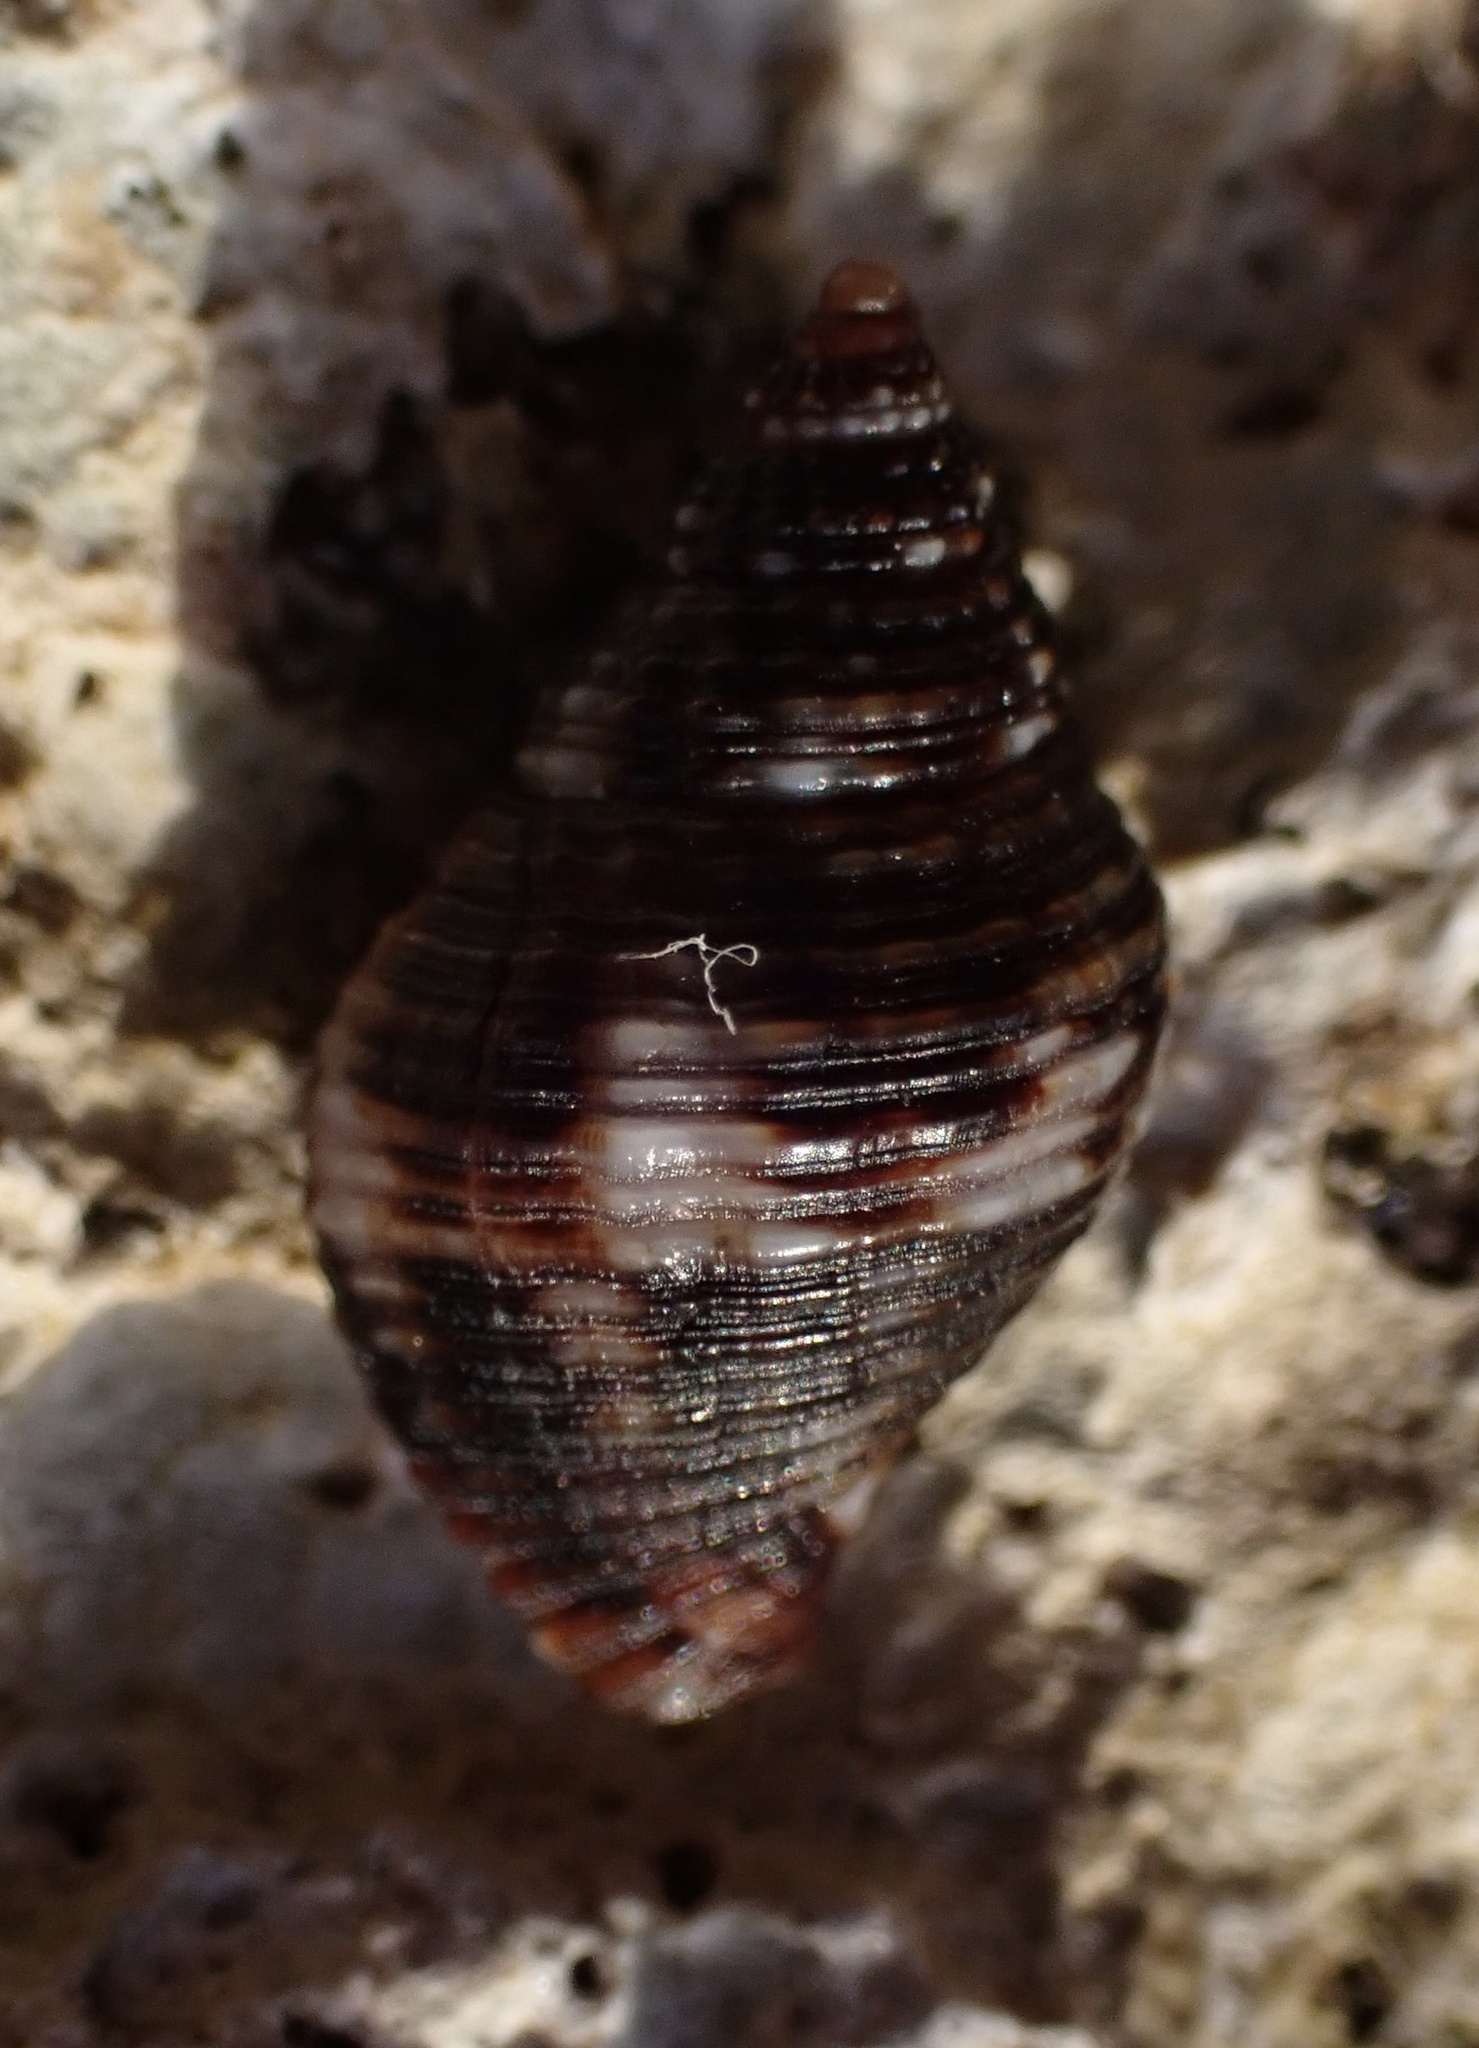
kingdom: Animalia
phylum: Mollusca
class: Gastropoda
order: Neogastropoda
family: Pisaniidae
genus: Gemophos
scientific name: Gemophos tinctus
